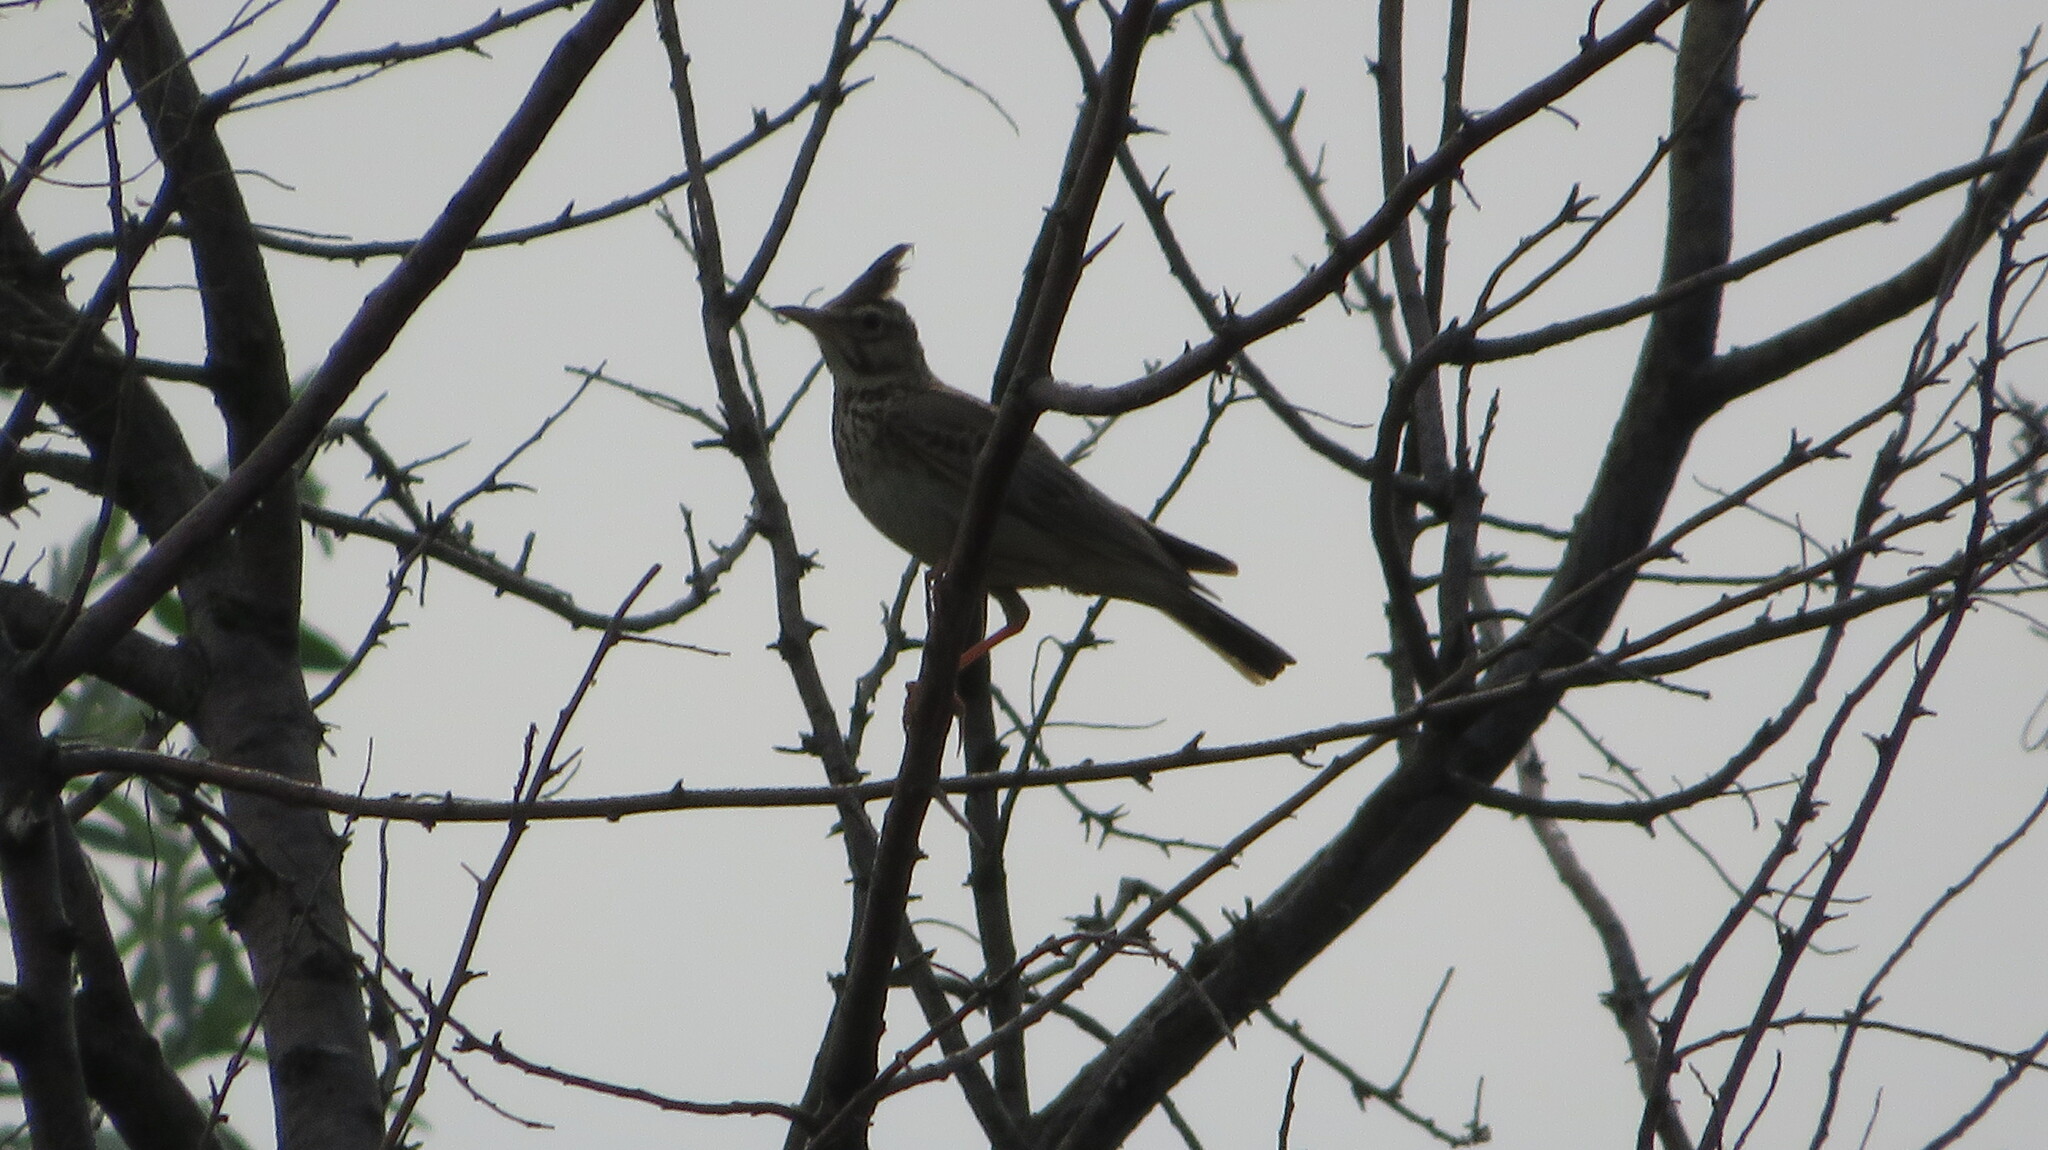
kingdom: Animalia
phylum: Chordata
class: Aves
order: Passeriformes
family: Alaudidae
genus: Galerida
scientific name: Galerida cristata
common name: Crested lark
